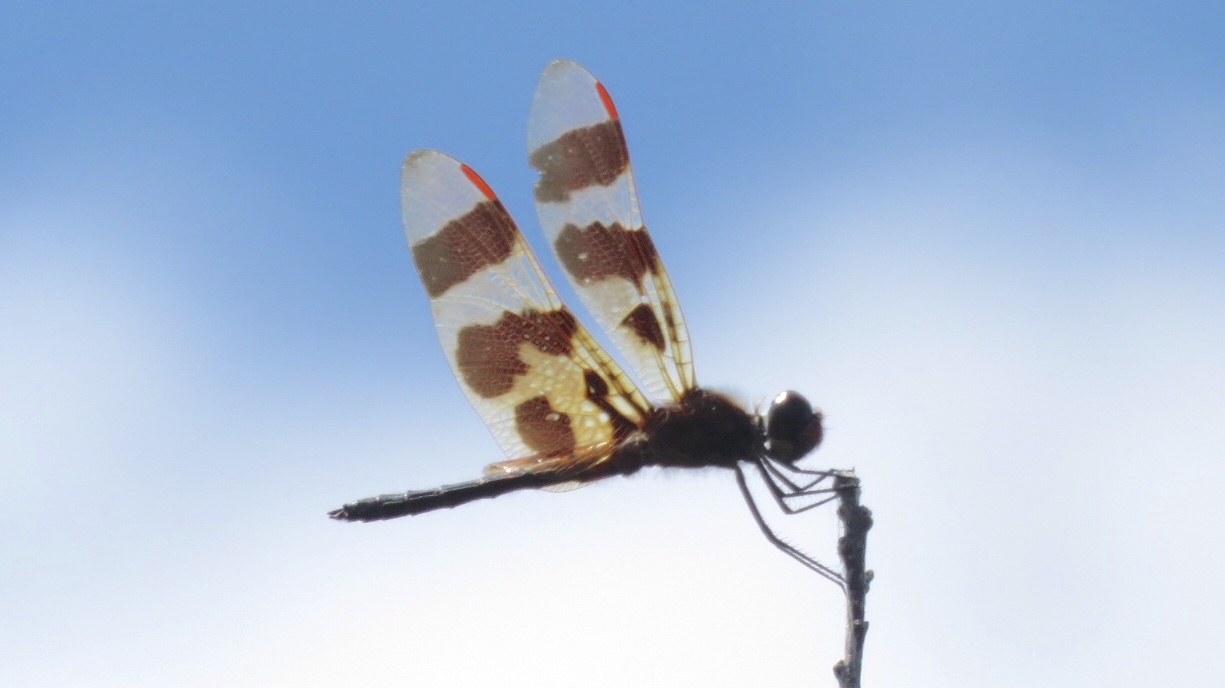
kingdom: Animalia
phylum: Arthropoda
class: Insecta
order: Odonata
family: Libellulidae
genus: Celithemis
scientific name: Celithemis eponina
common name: Halloween pennant
